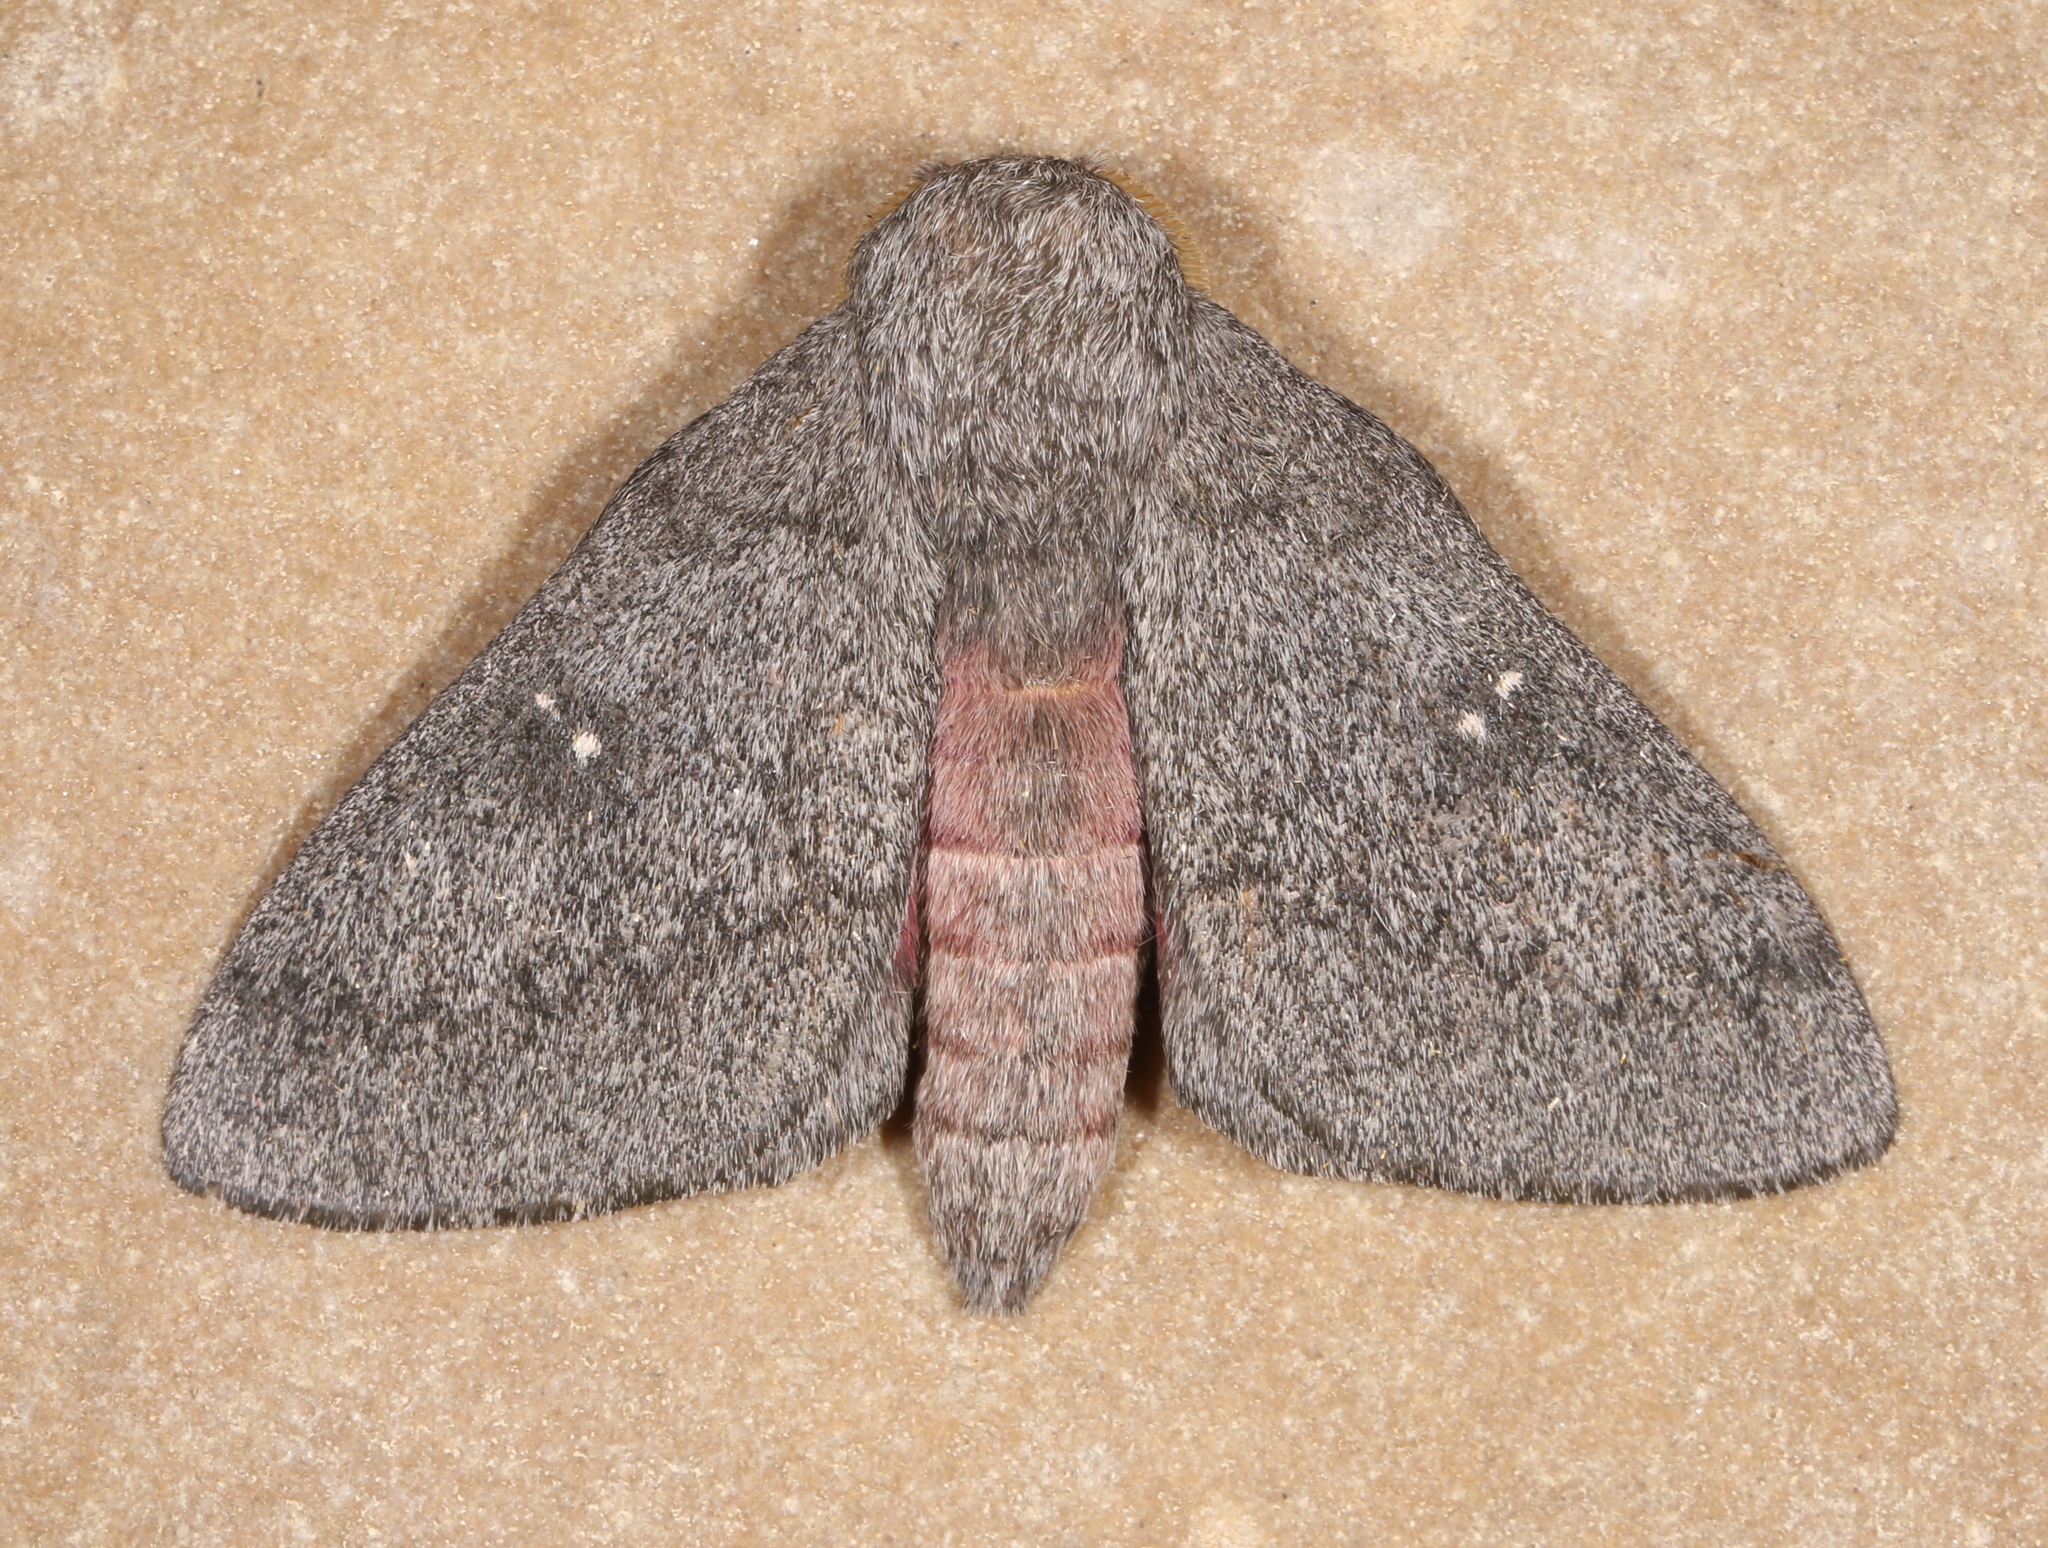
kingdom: Animalia
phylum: Arthropoda
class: Insecta
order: Lepidoptera
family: Saturniidae
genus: Syssphinx
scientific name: Syssphinx hubbardi
